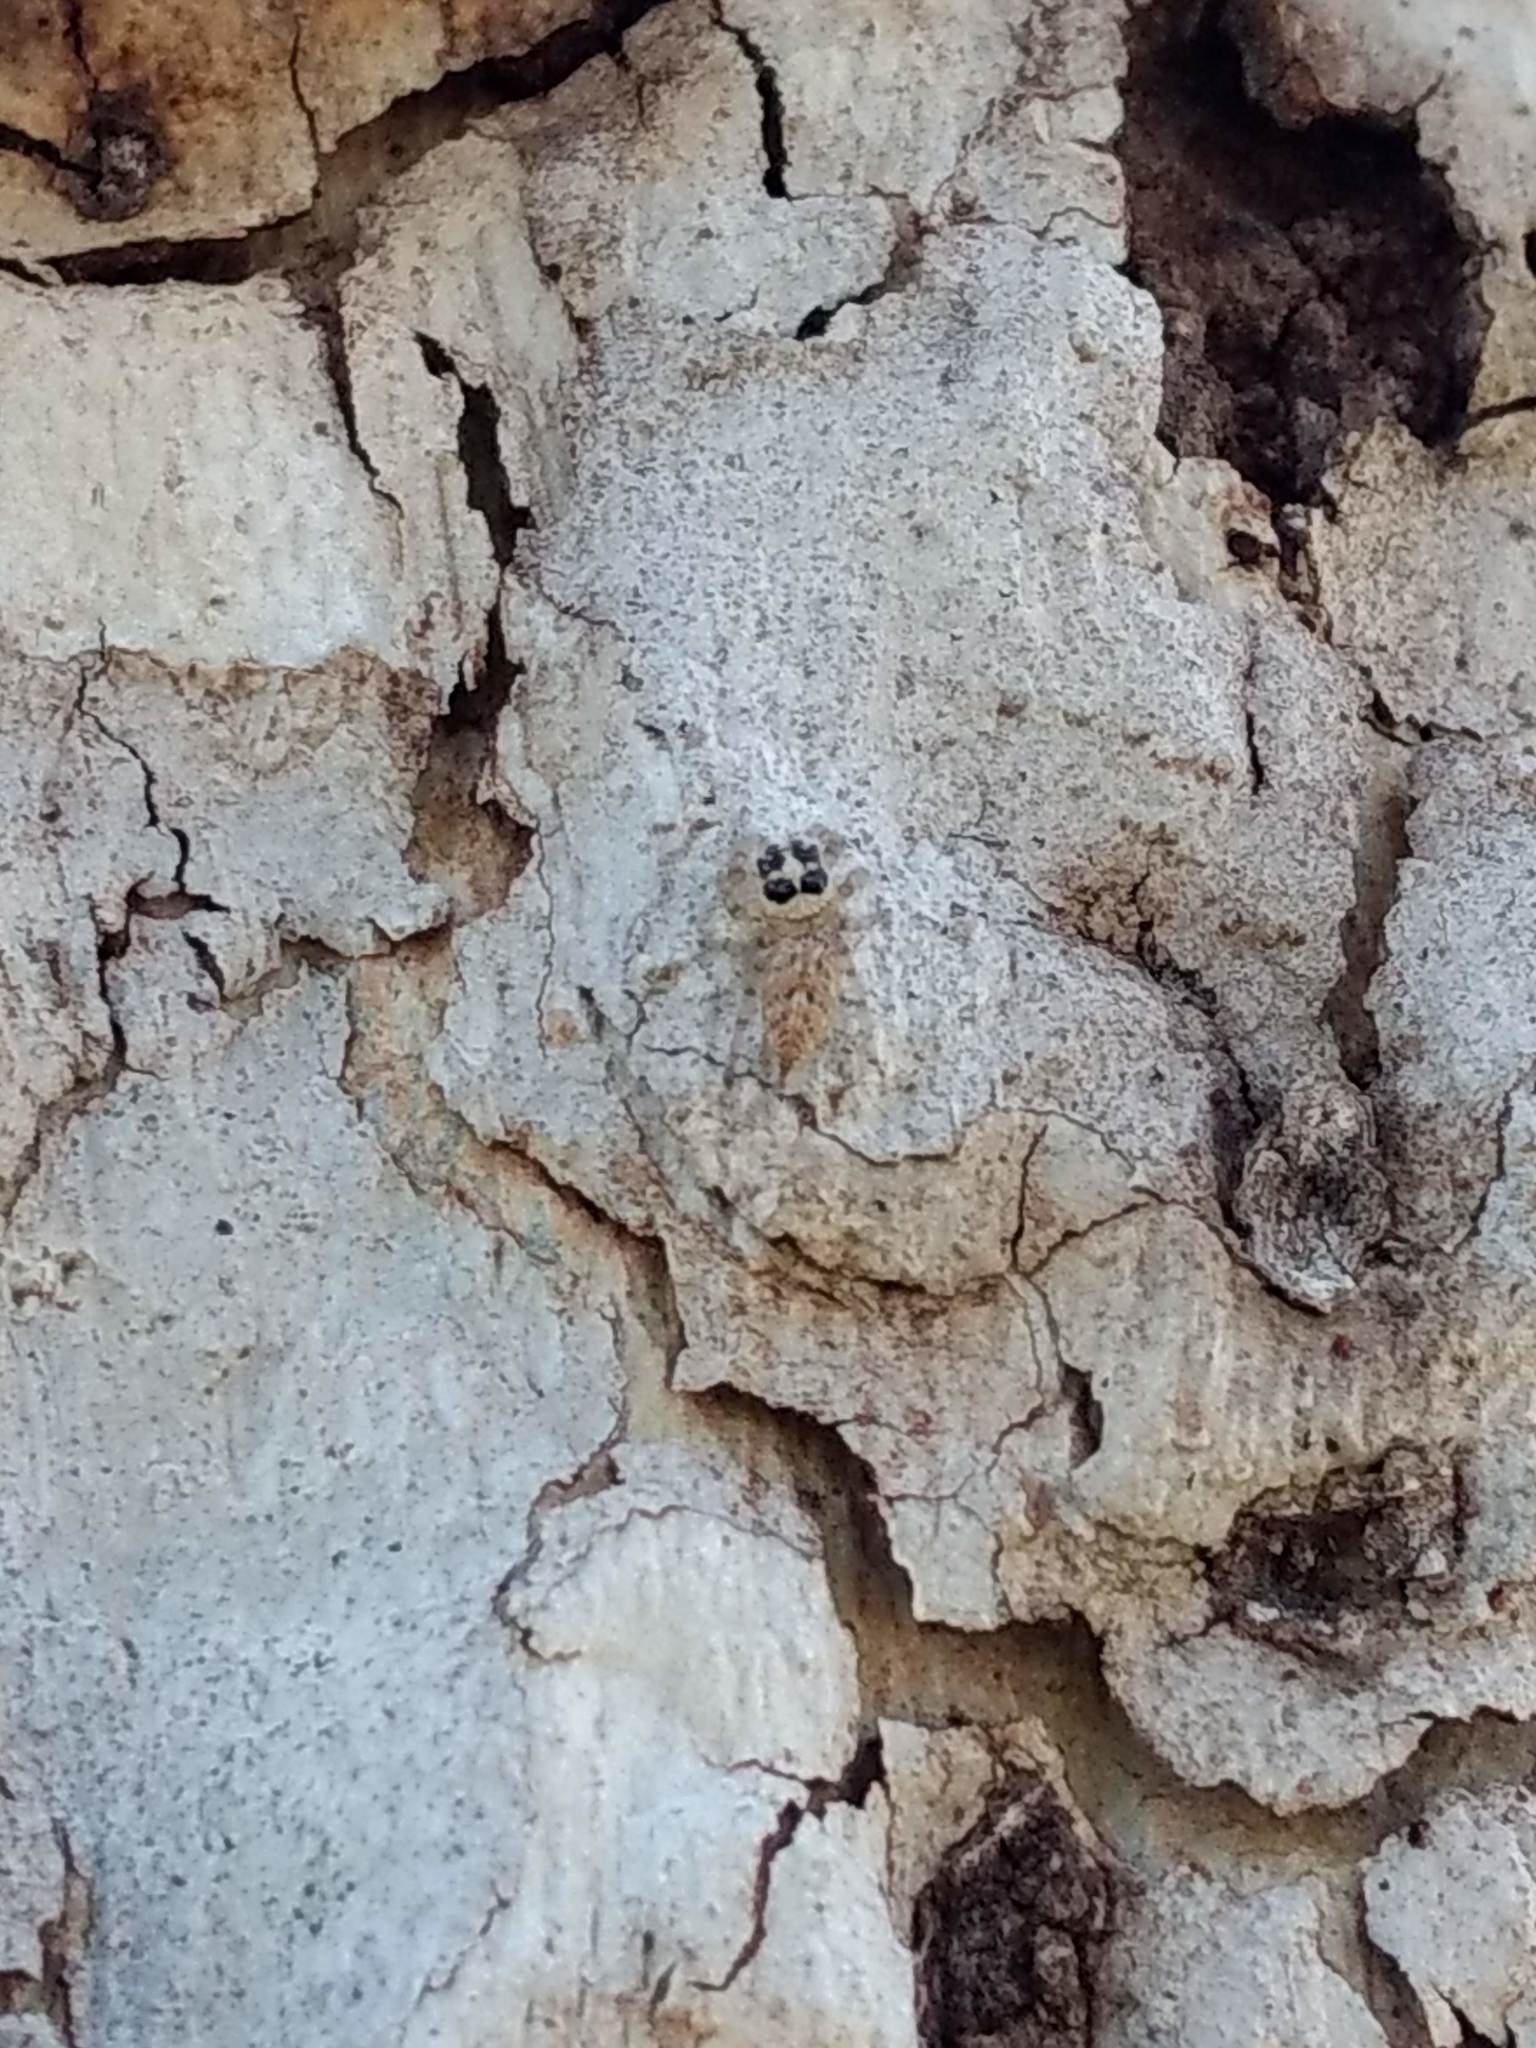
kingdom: Animalia
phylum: Arthropoda
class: Arachnida
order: Araneae
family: Salticidae
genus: Colonus
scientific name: Colonus hesperus
